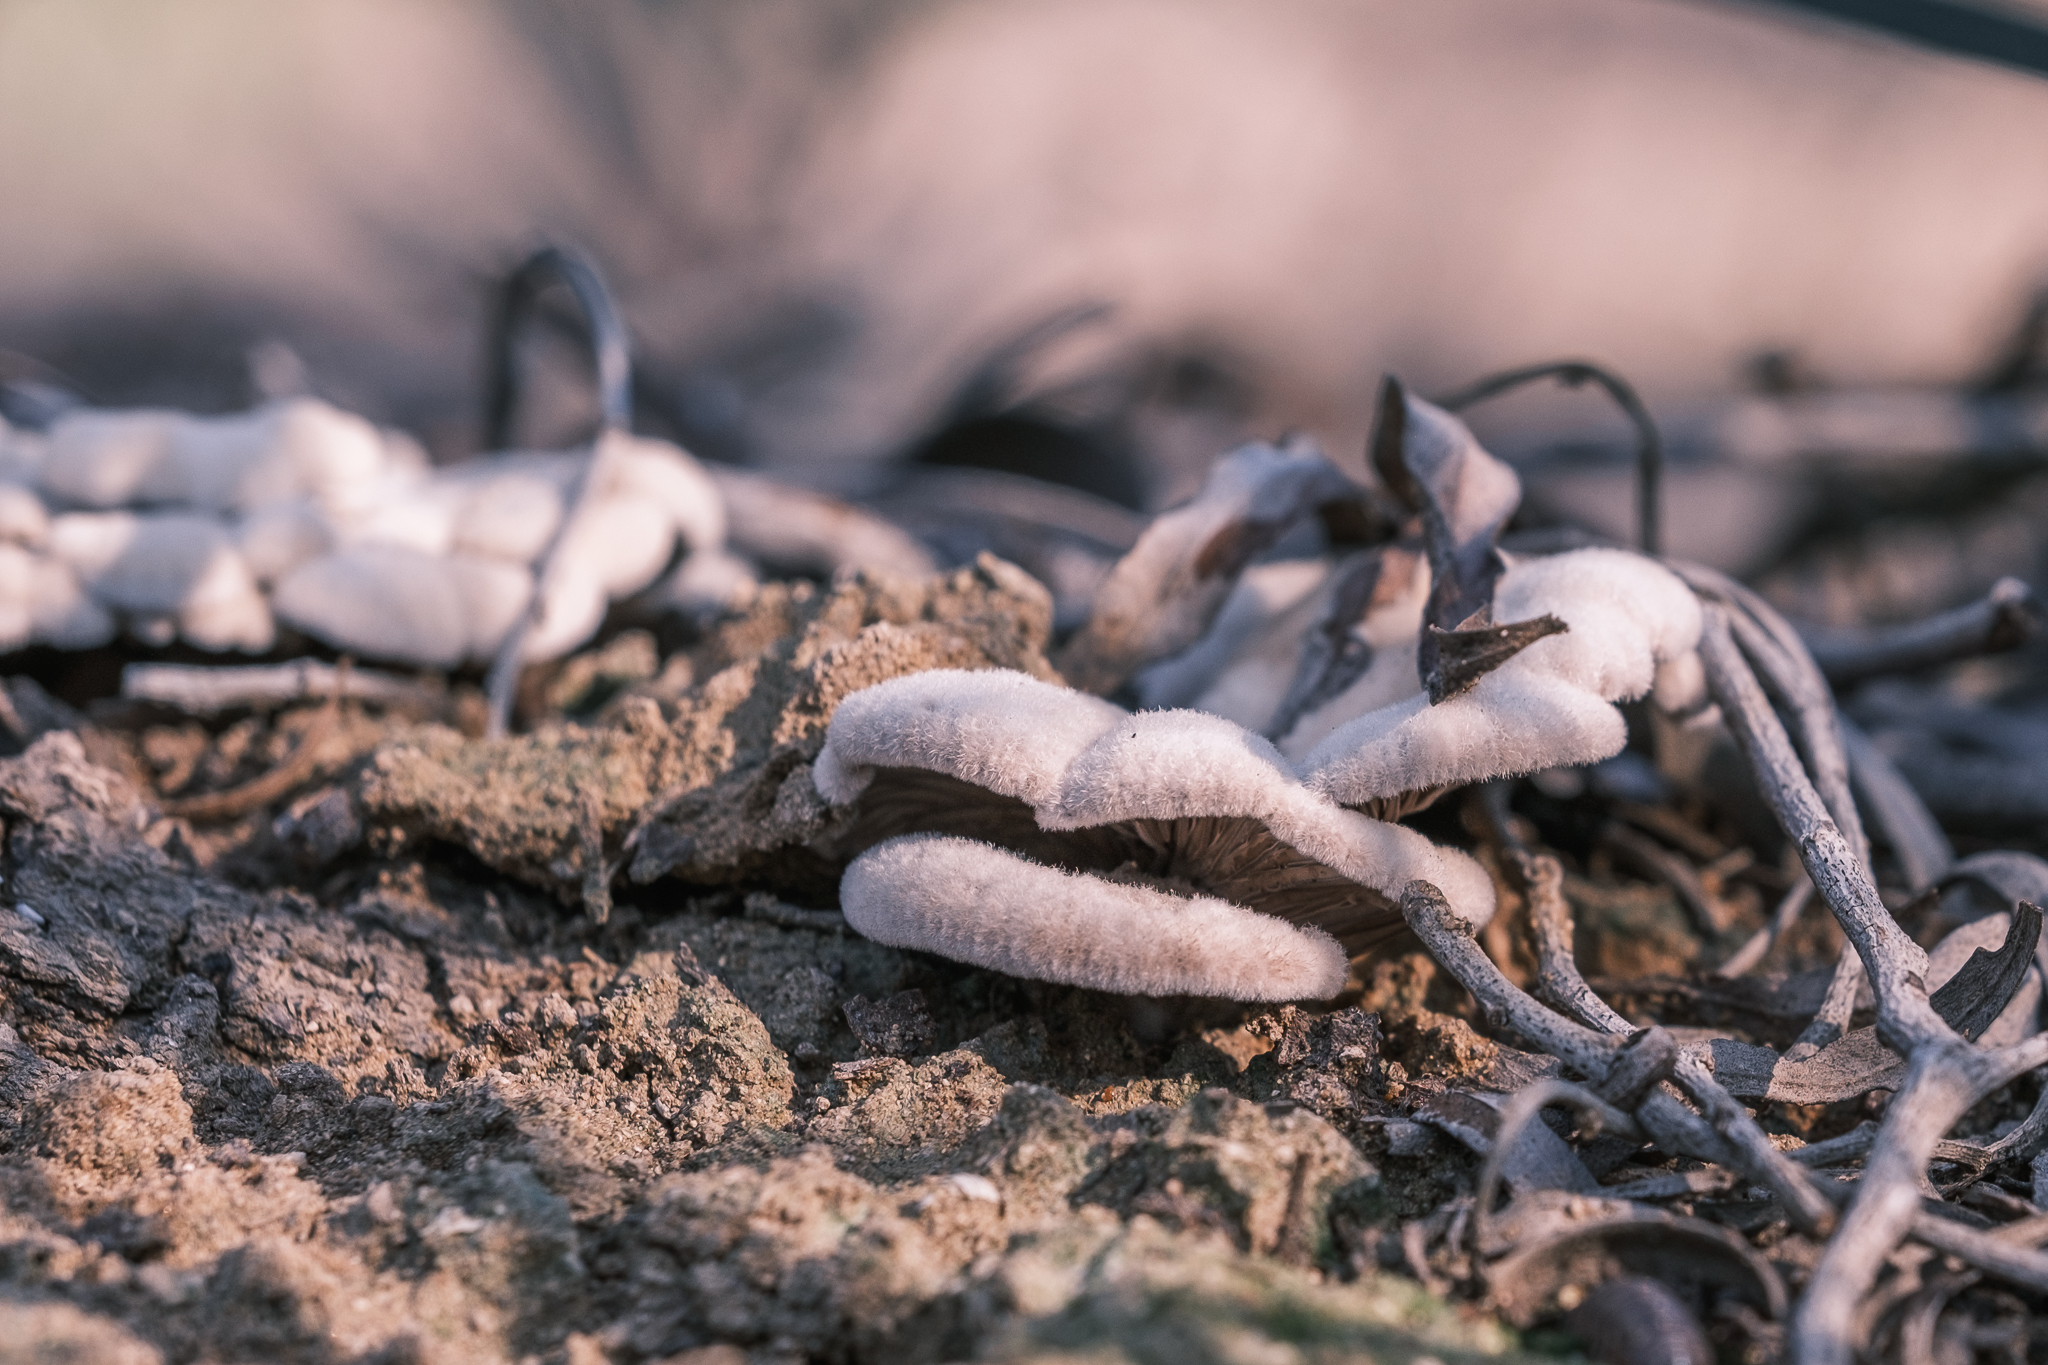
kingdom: Fungi
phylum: Basidiomycota
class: Agaricomycetes
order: Agaricales
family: Schizophyllaceae
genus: Schizophyllum
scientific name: Schizophyllum commune
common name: Common porecrust
